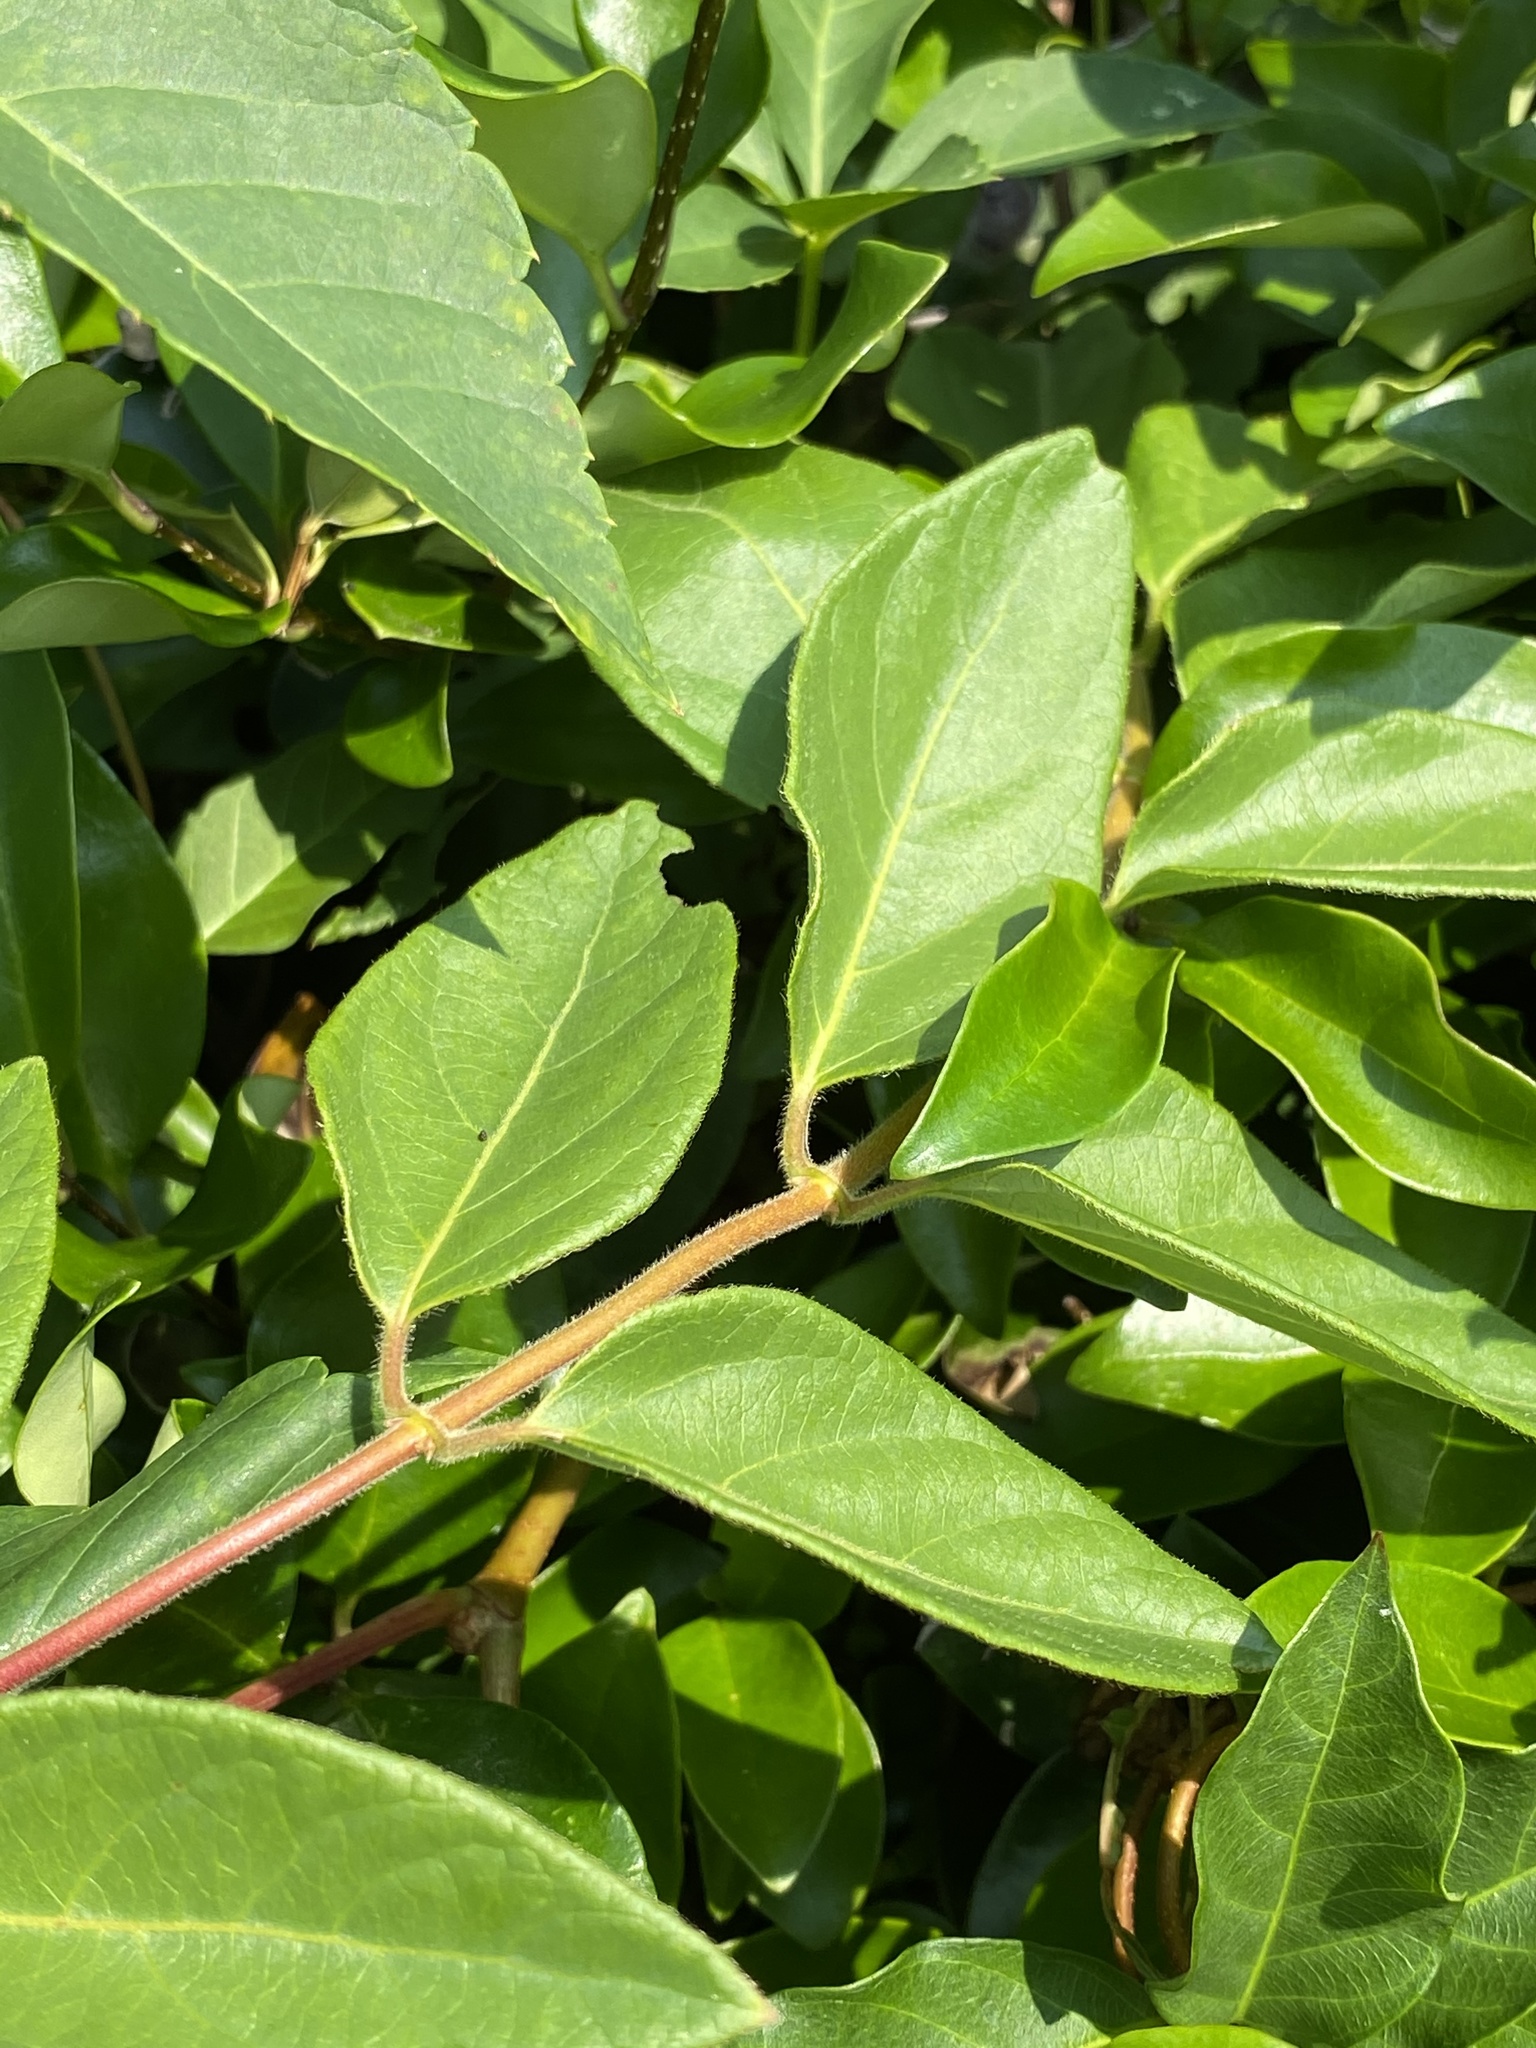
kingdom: Plantae
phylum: Tracheophyta
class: Magnoliopsida
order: Gentianales
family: Apocynaceae
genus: Thyrsanthella
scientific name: Thyrsanthella difformis
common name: Climbing dogbane
